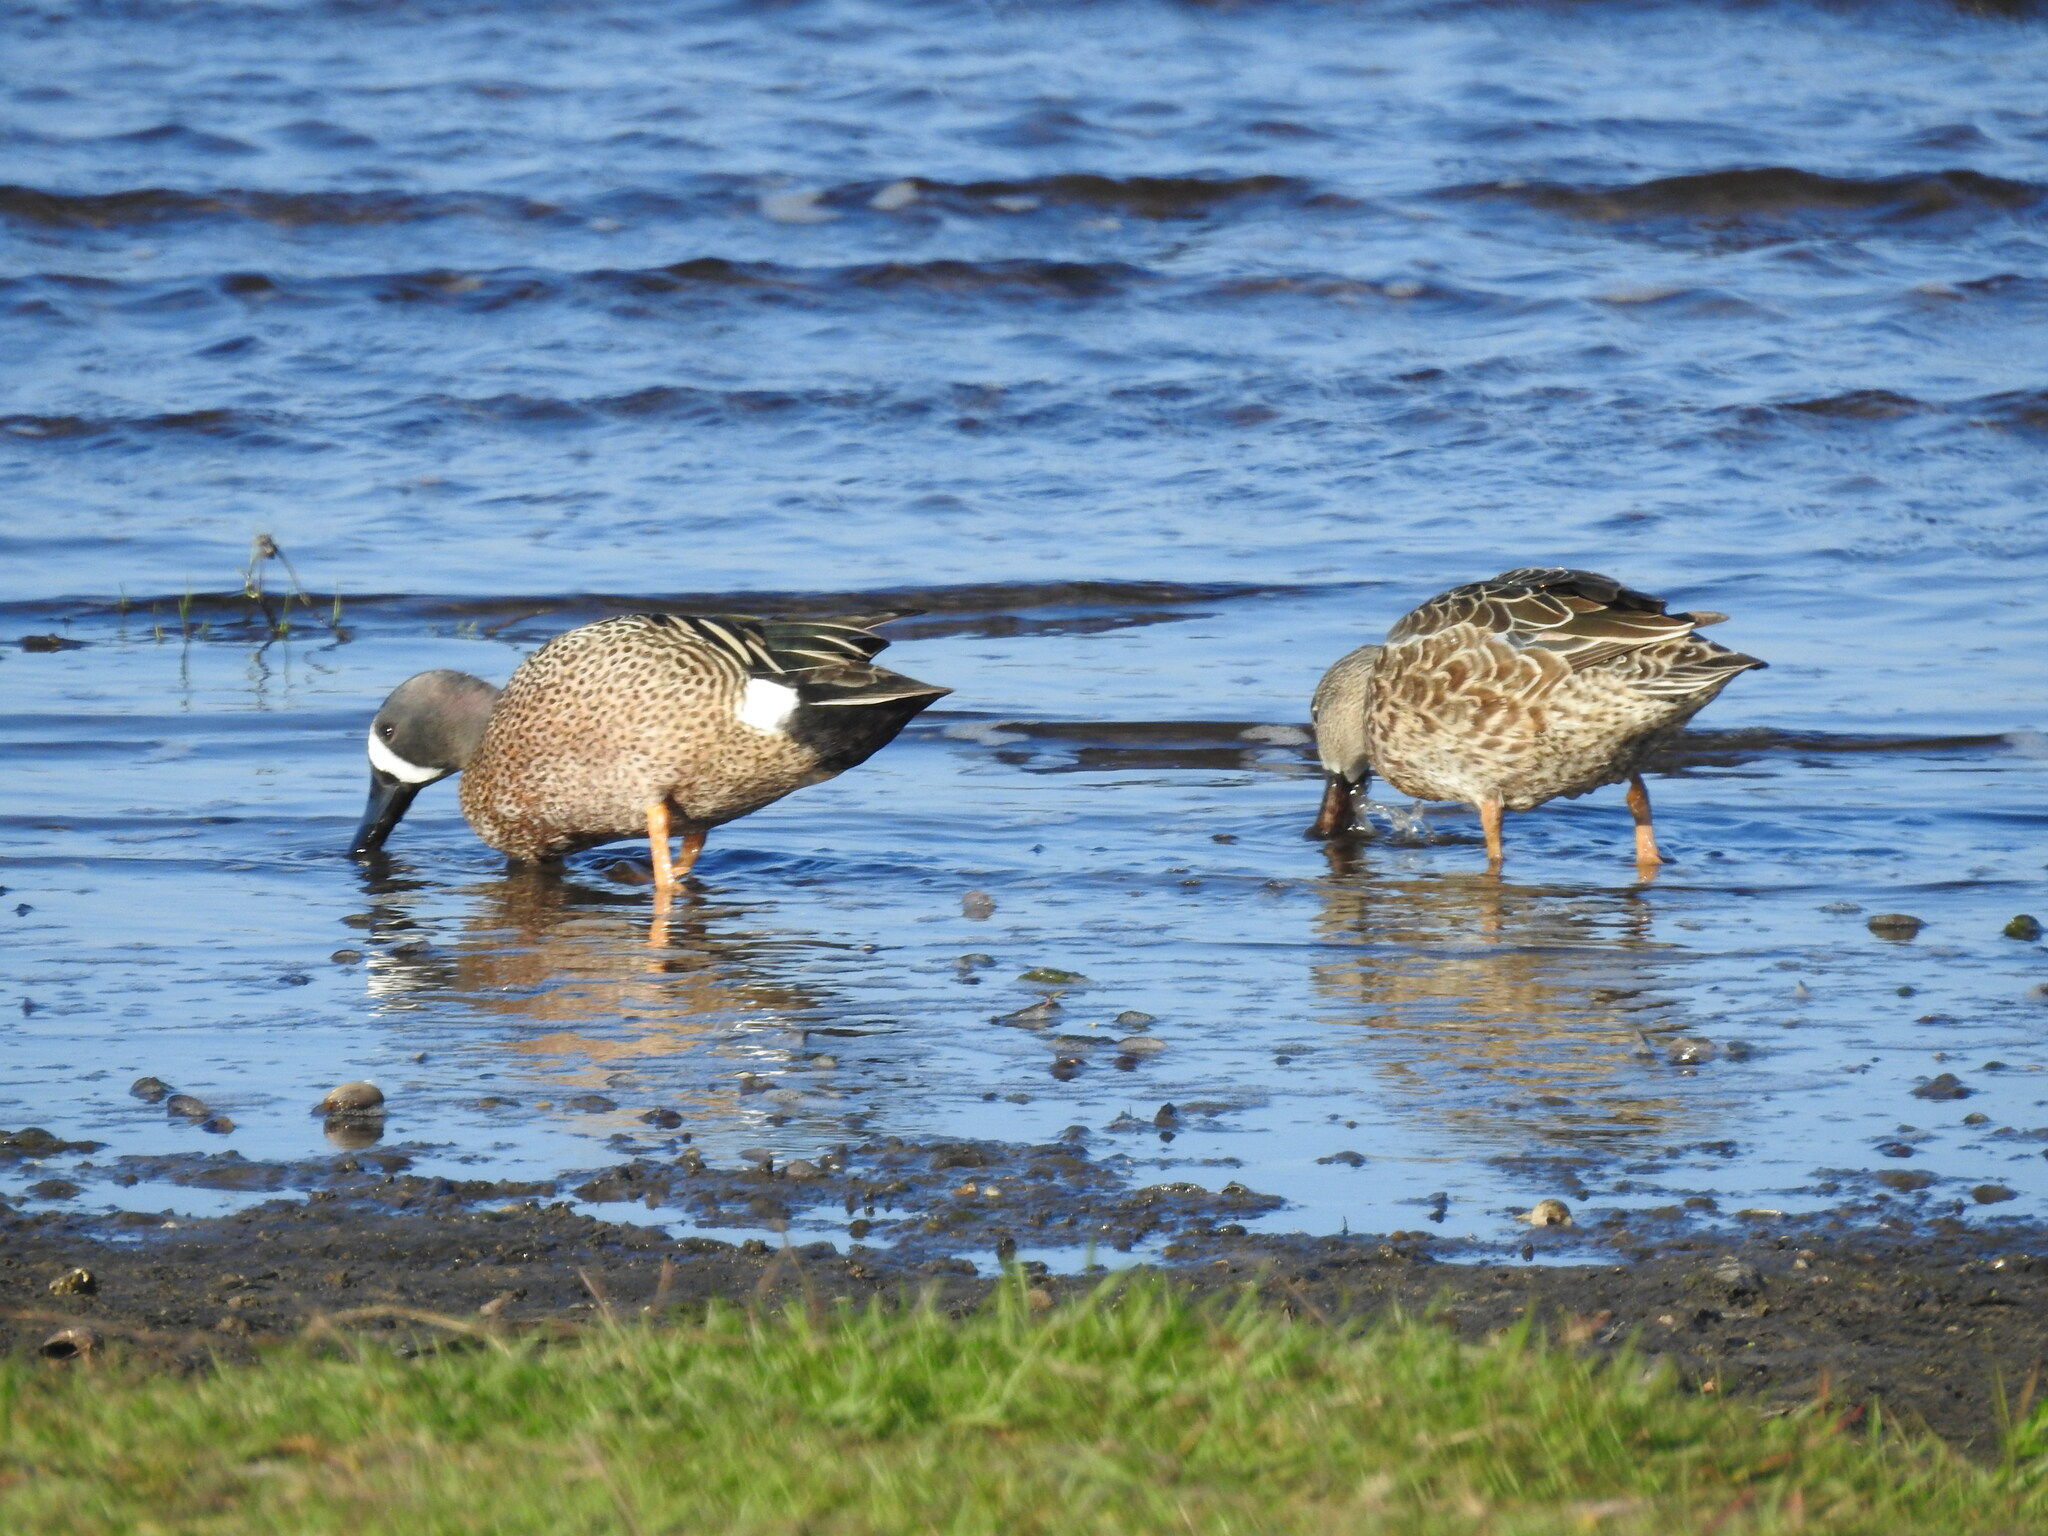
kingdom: Animalia
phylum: Chordata
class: Aves
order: Anseriformes
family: Anatidae
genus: Spatula
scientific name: Spatula discors
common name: Blue-winged teal
